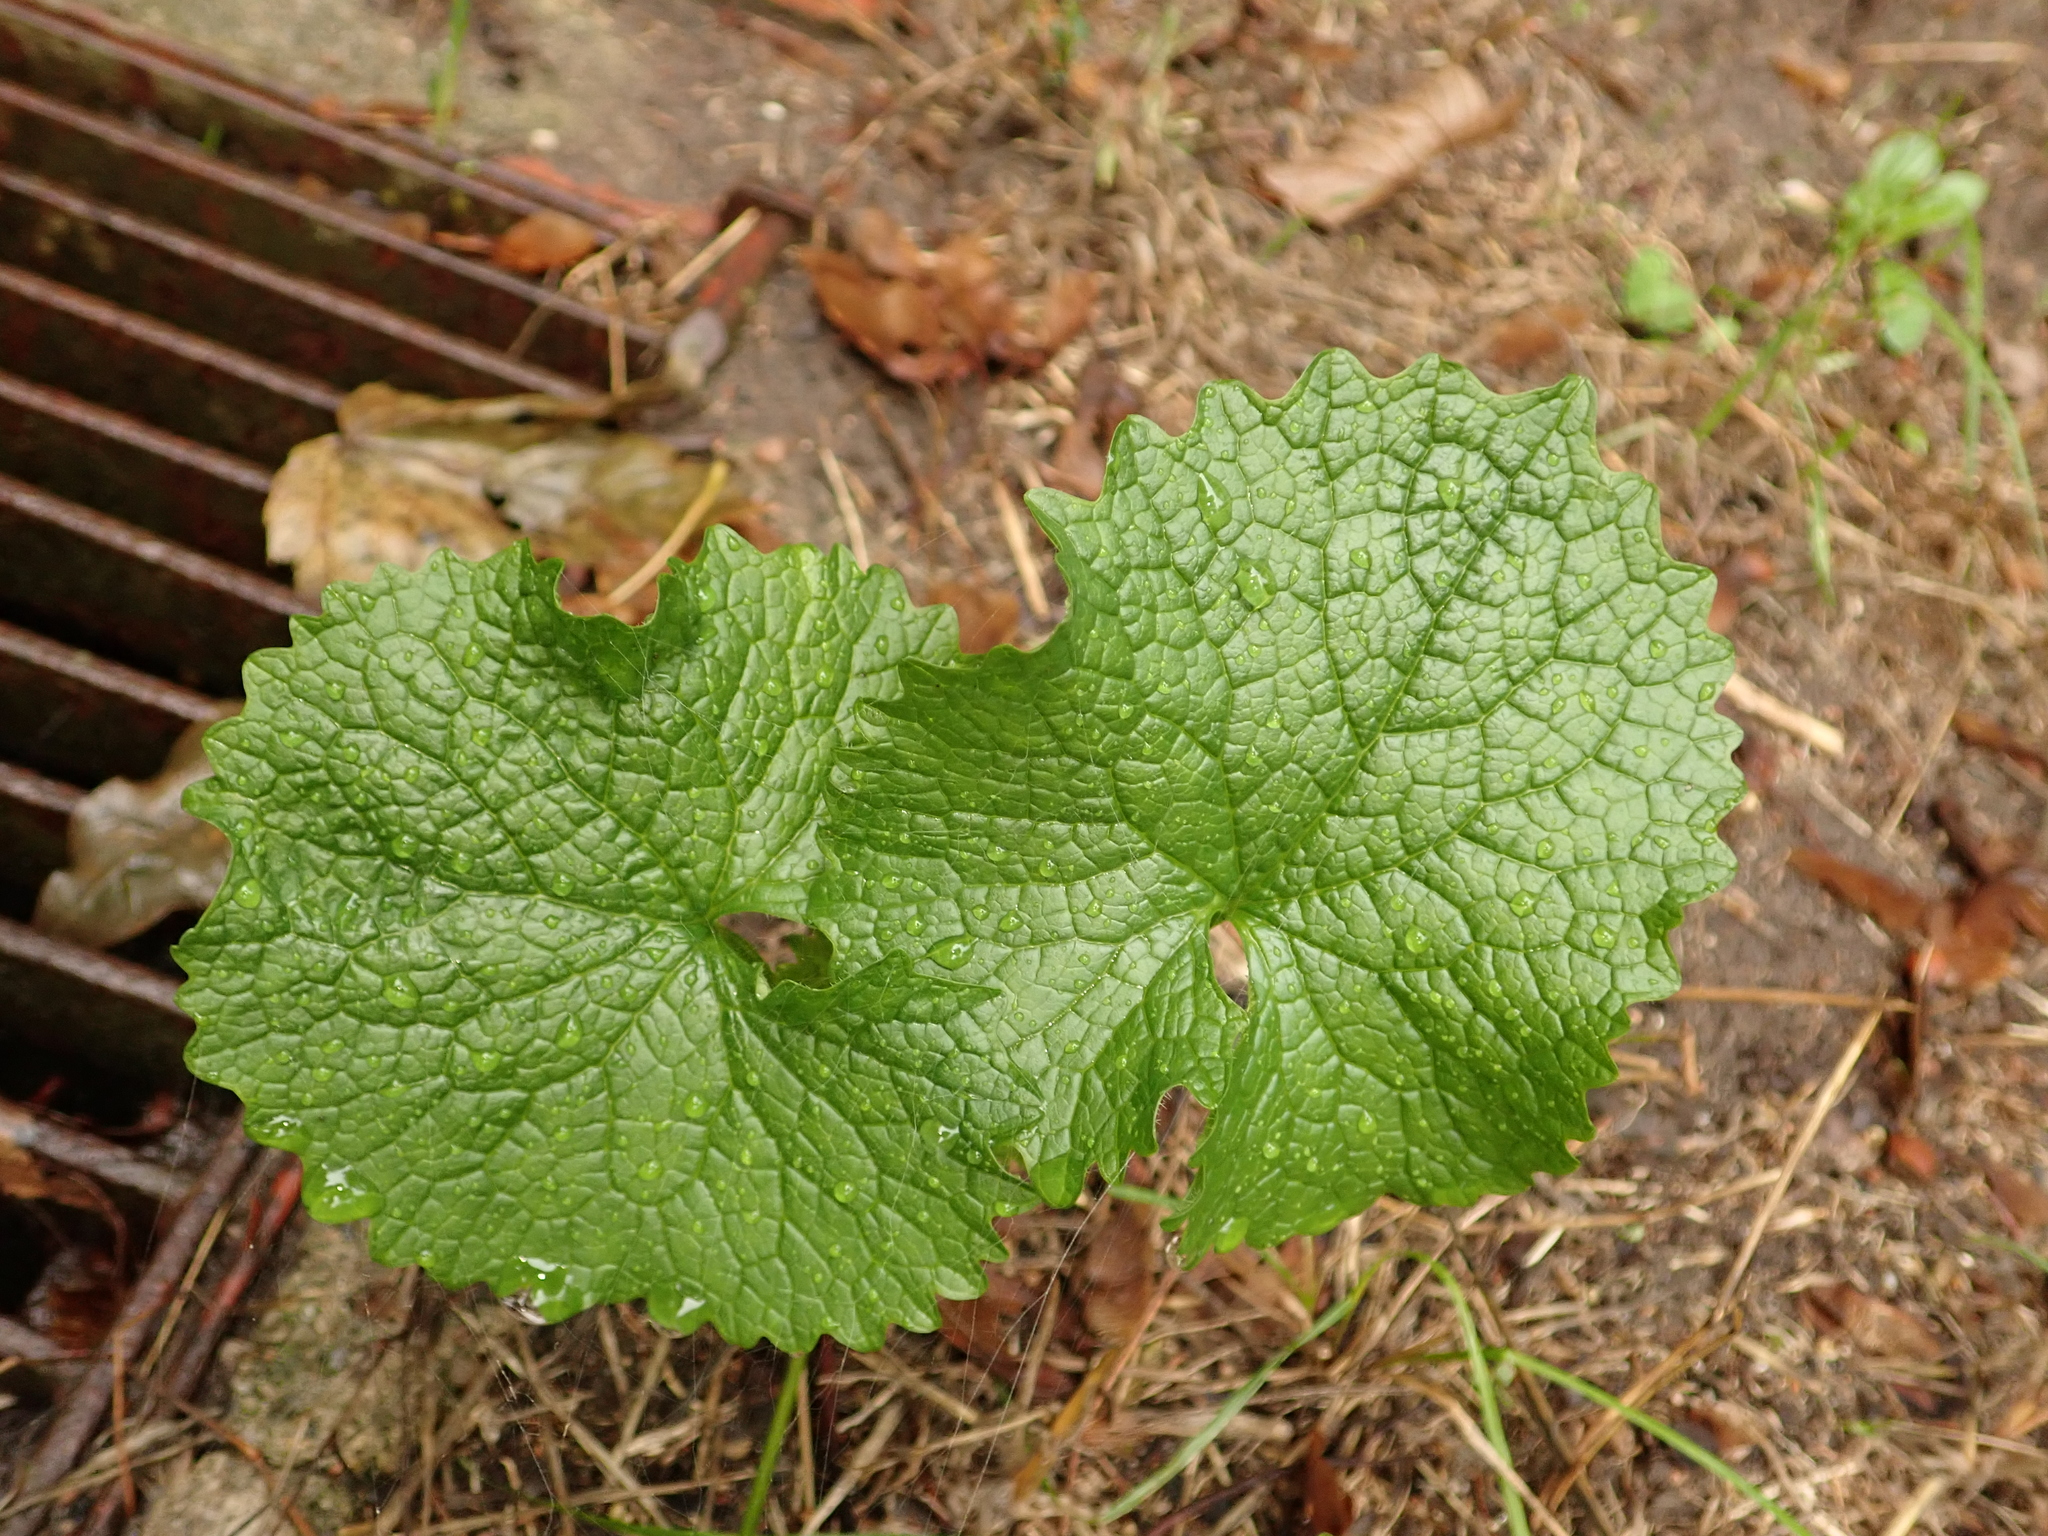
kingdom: Plantae
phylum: Tracheophyta
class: Magnoliopsida
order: Brassicales
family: Brassicaceae
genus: Alliaria
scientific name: Alliaria petiolata
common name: Garlic mustard
